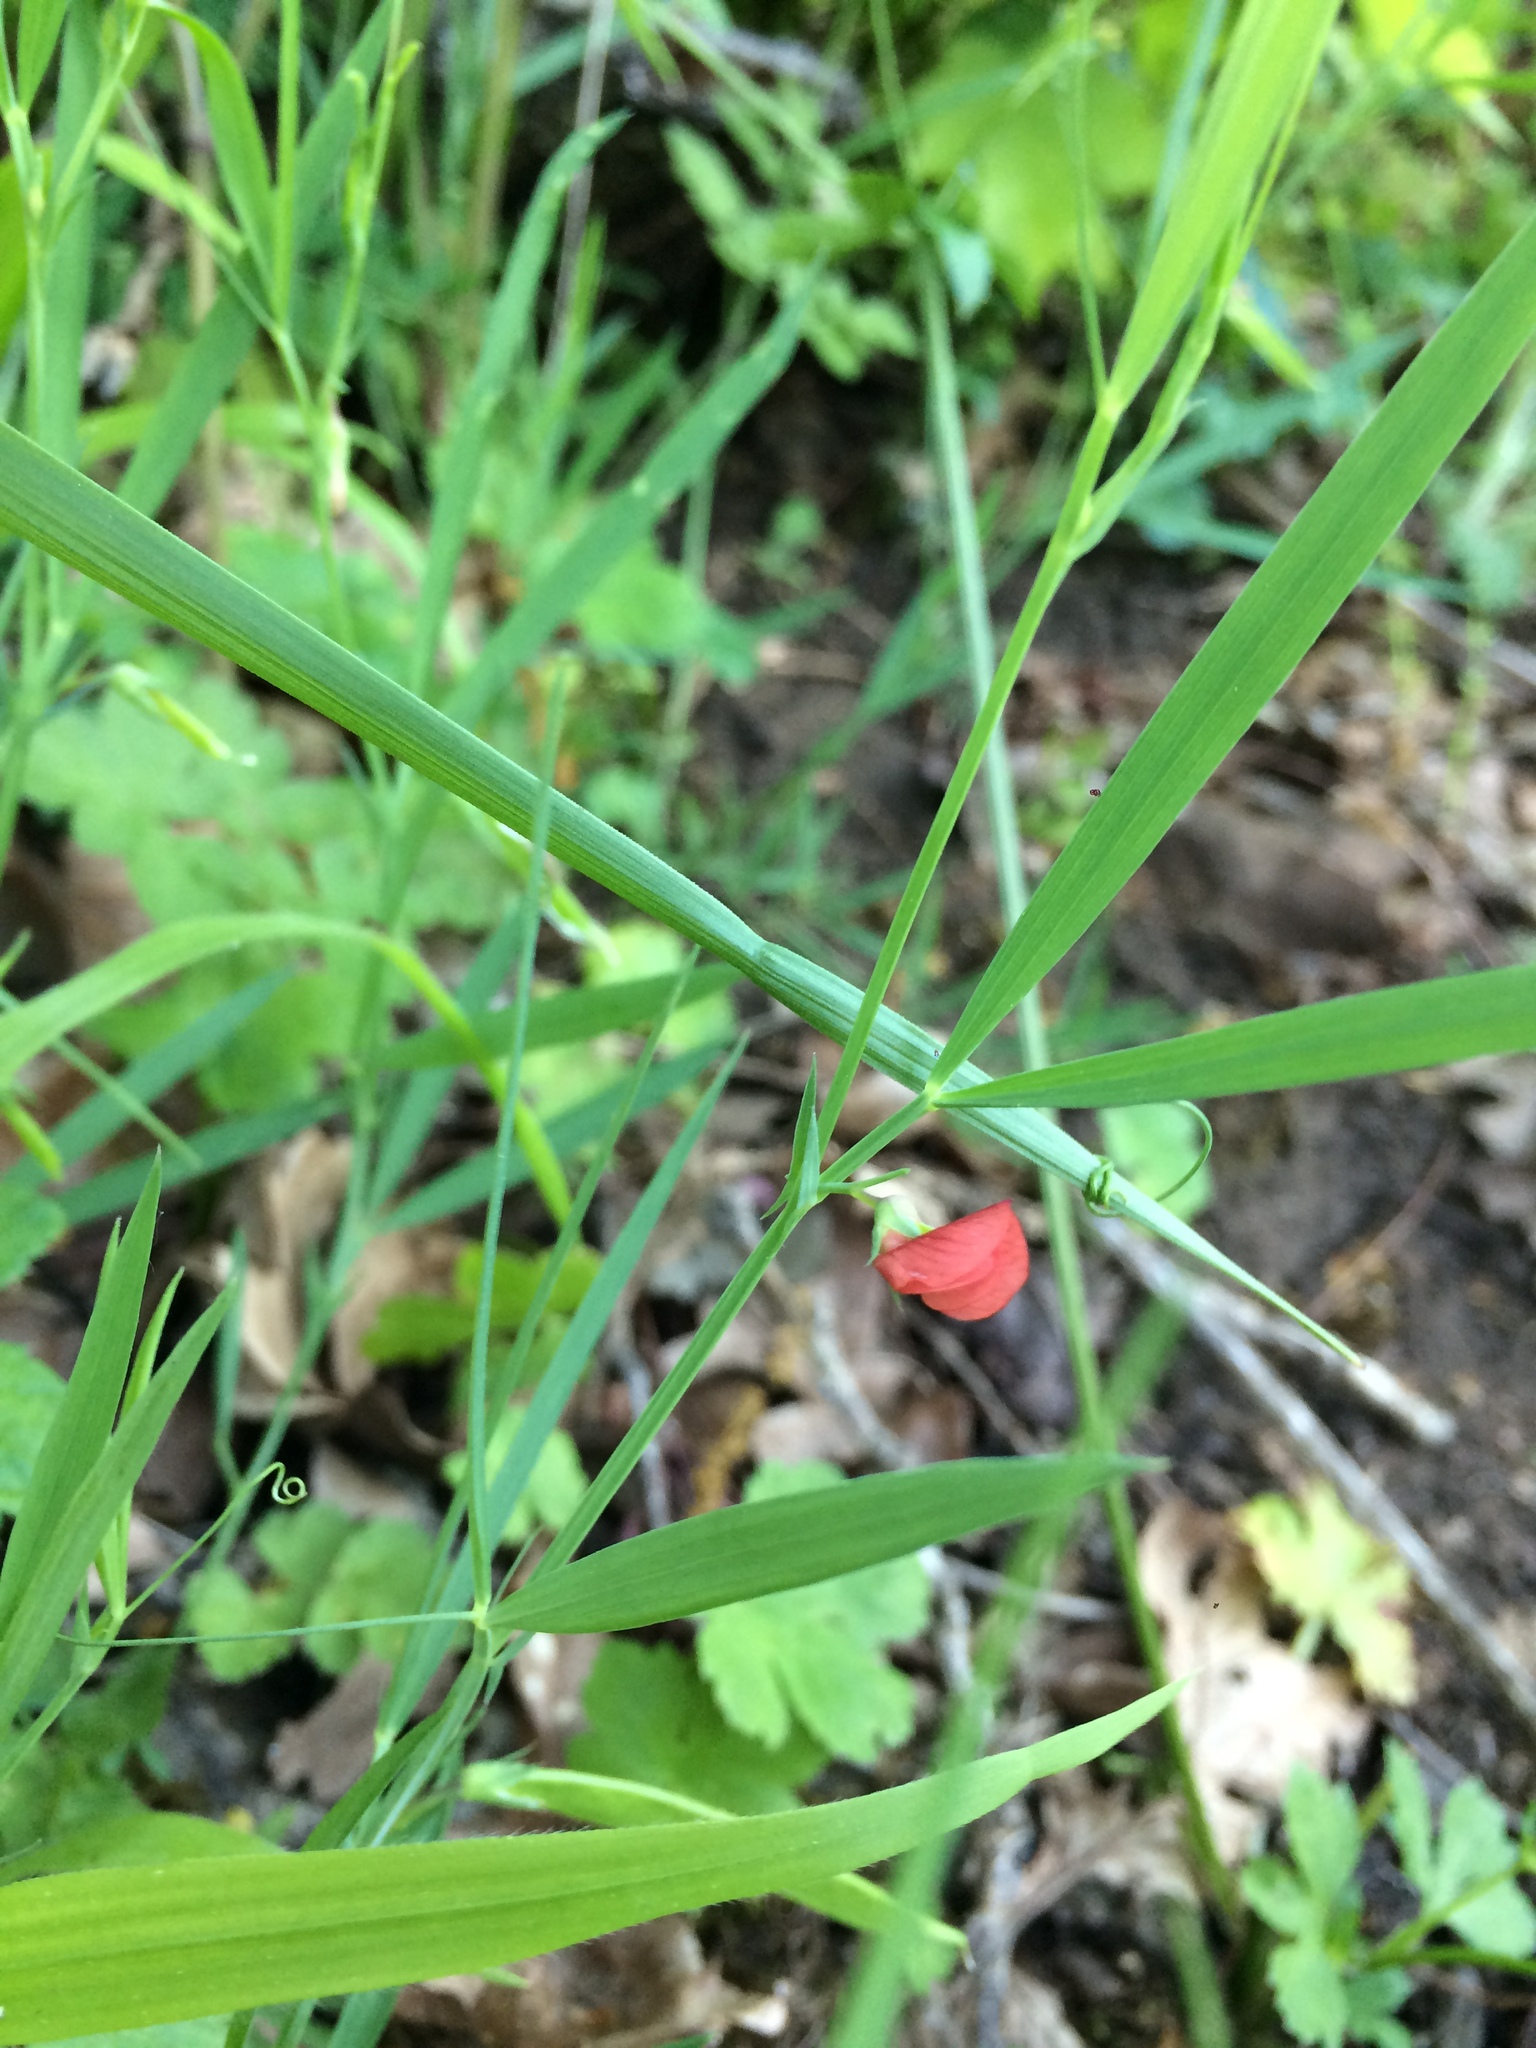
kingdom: Plantae
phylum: Tracheophyta
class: Magnoliopsida
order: Fabales
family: Fabaceae
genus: Lathyrus
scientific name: Lathyrus sphaericus
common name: Grass pea
